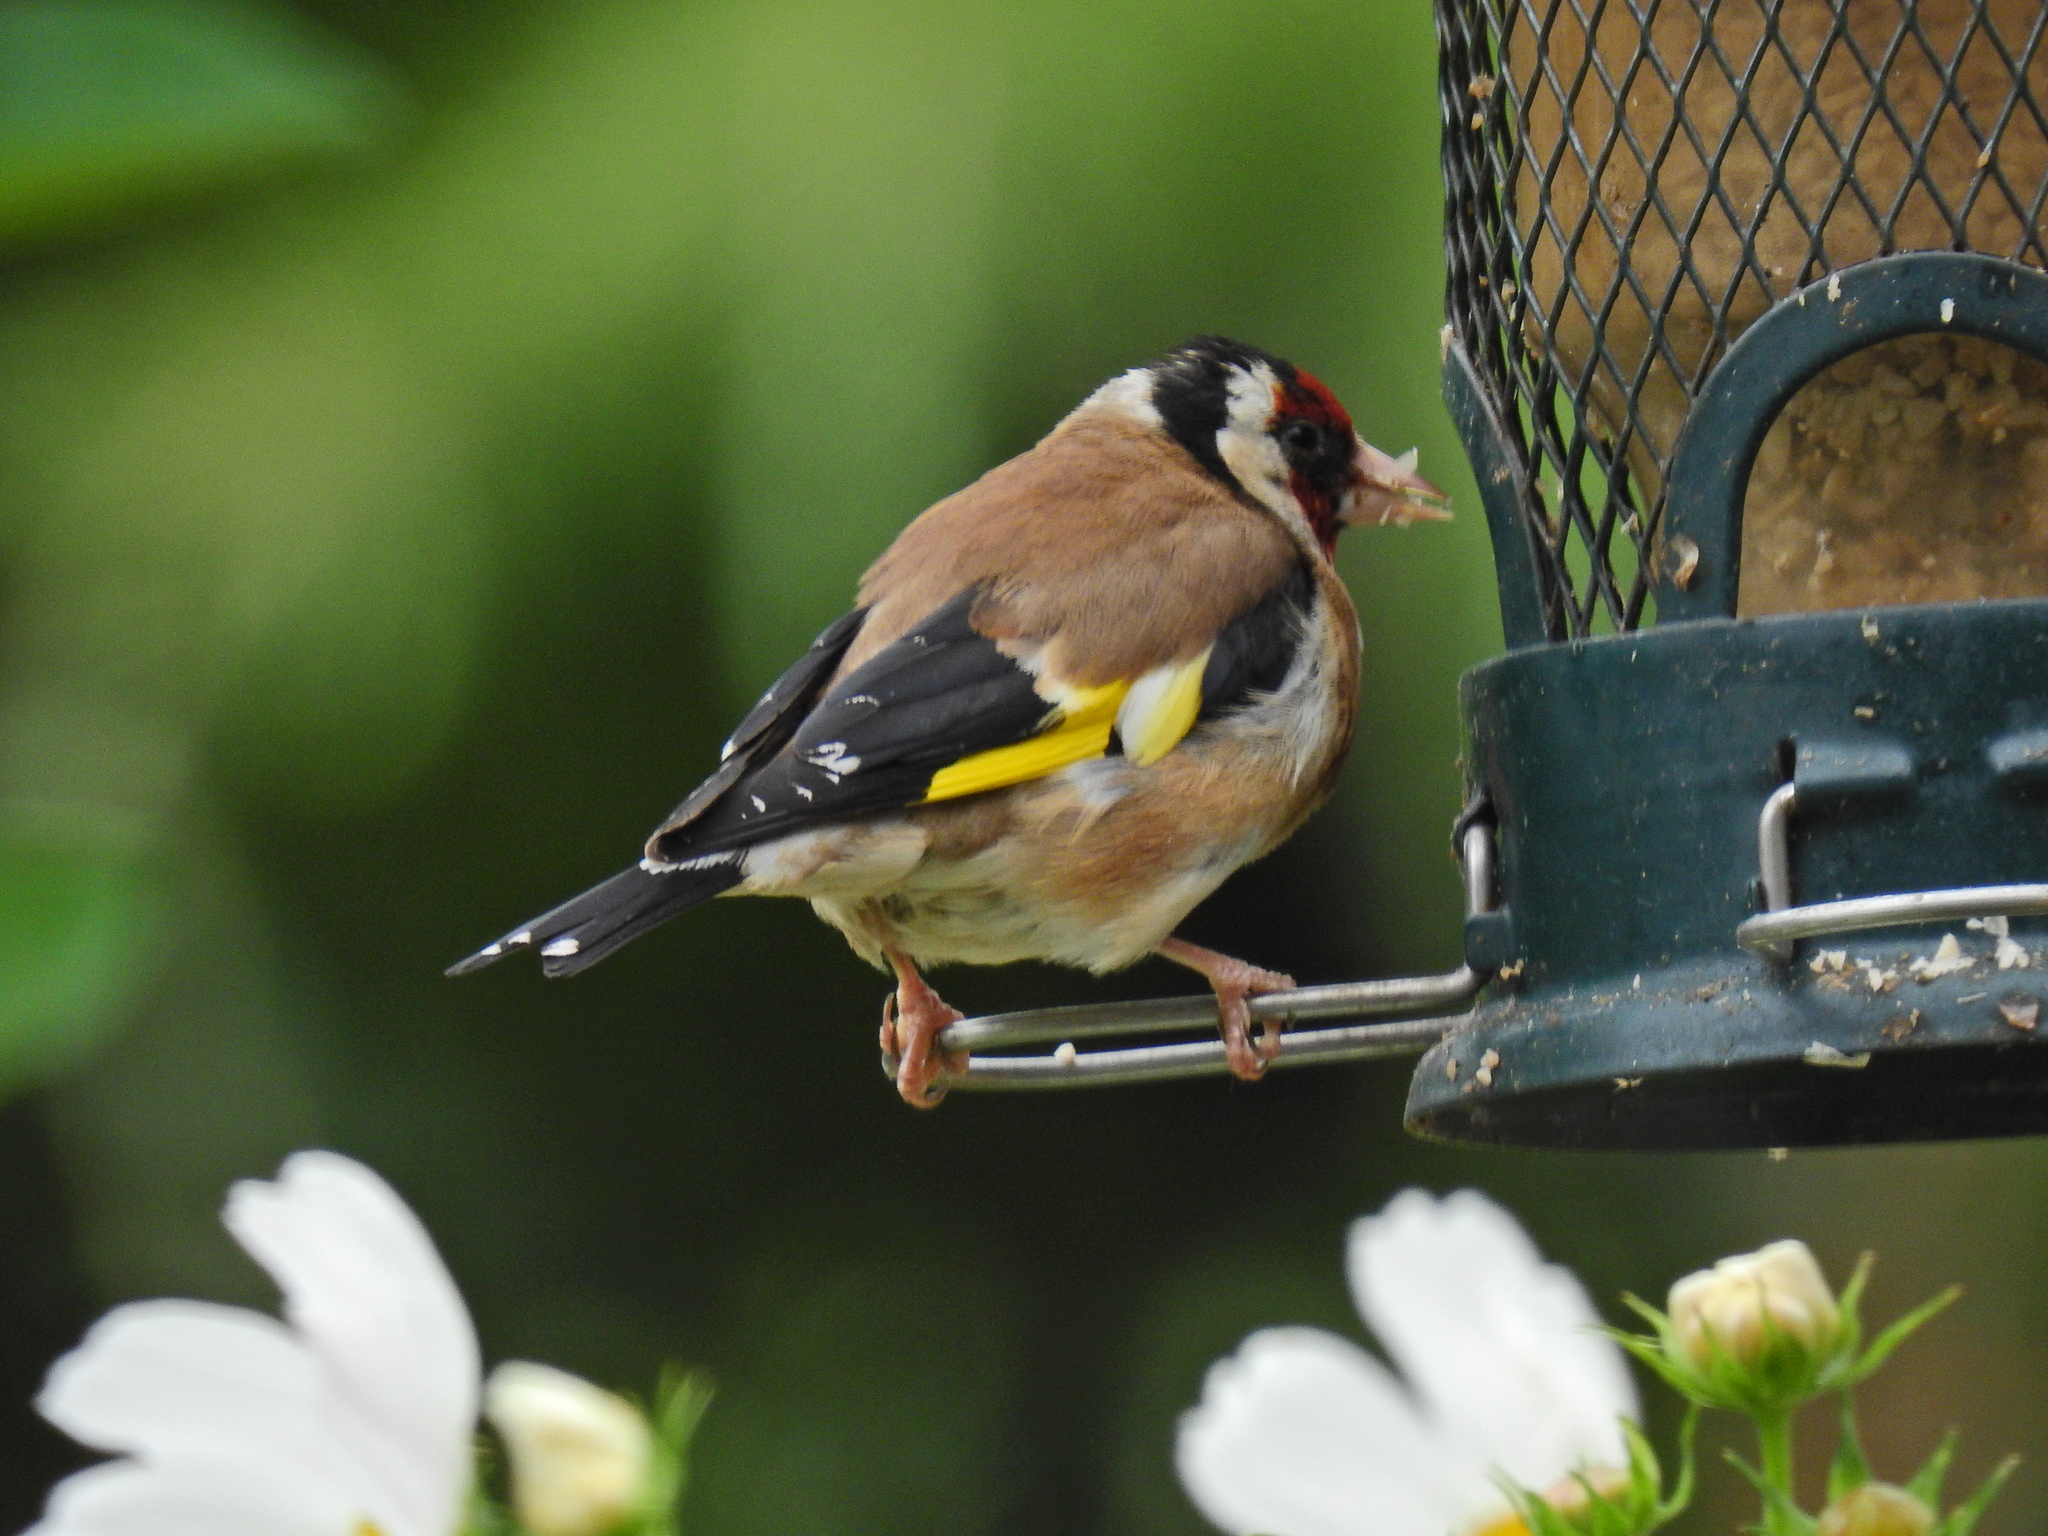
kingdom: Animalia
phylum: Chordata
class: Aves
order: Passeriformes
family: Fringillidae
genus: Carduelis
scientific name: Carduelis carduelis
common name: European goldfinch
